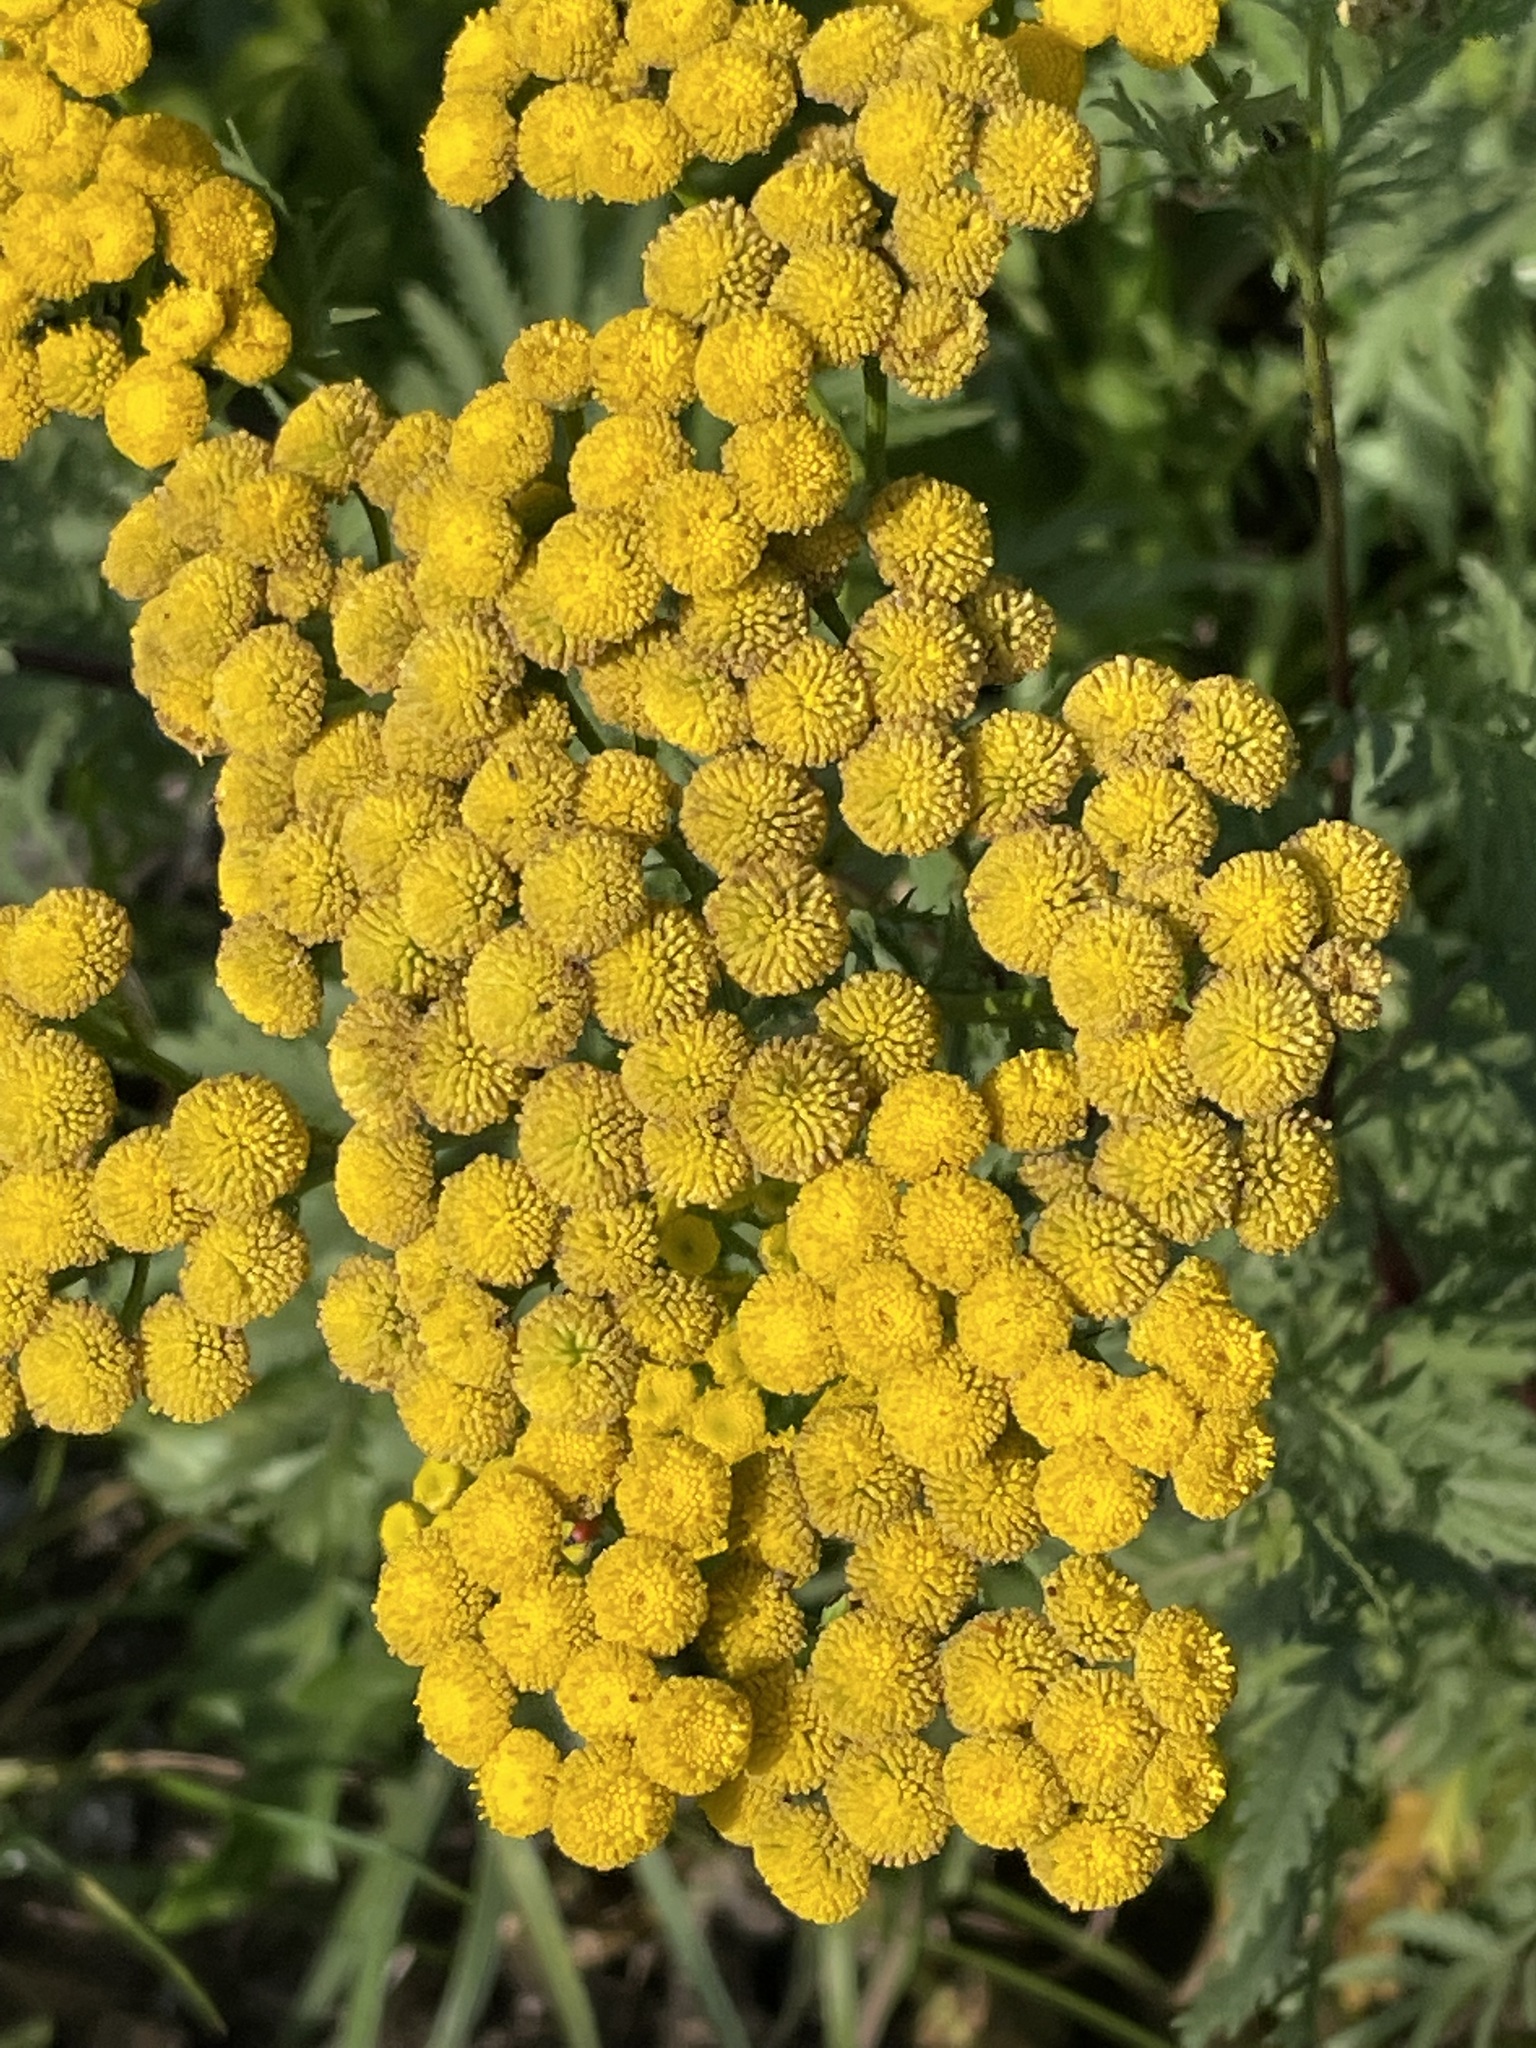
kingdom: Plantae
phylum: Tracheophyta
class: Magnoliopsida
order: Asterales
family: Asteraceae
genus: Tanacetum
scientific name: Tanacetum vulgare
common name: Common tansy
